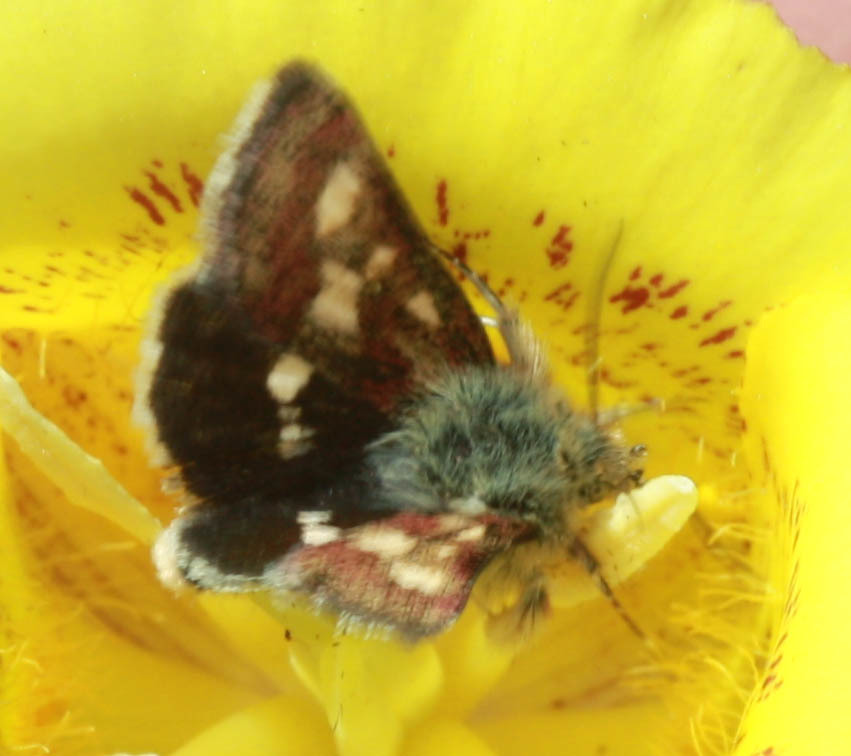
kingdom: Animalia
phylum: Arthropoda
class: Insecta
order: Lepidoptera
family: Noctuidae
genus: Heliothodes
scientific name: Heliothodes diminutiva
